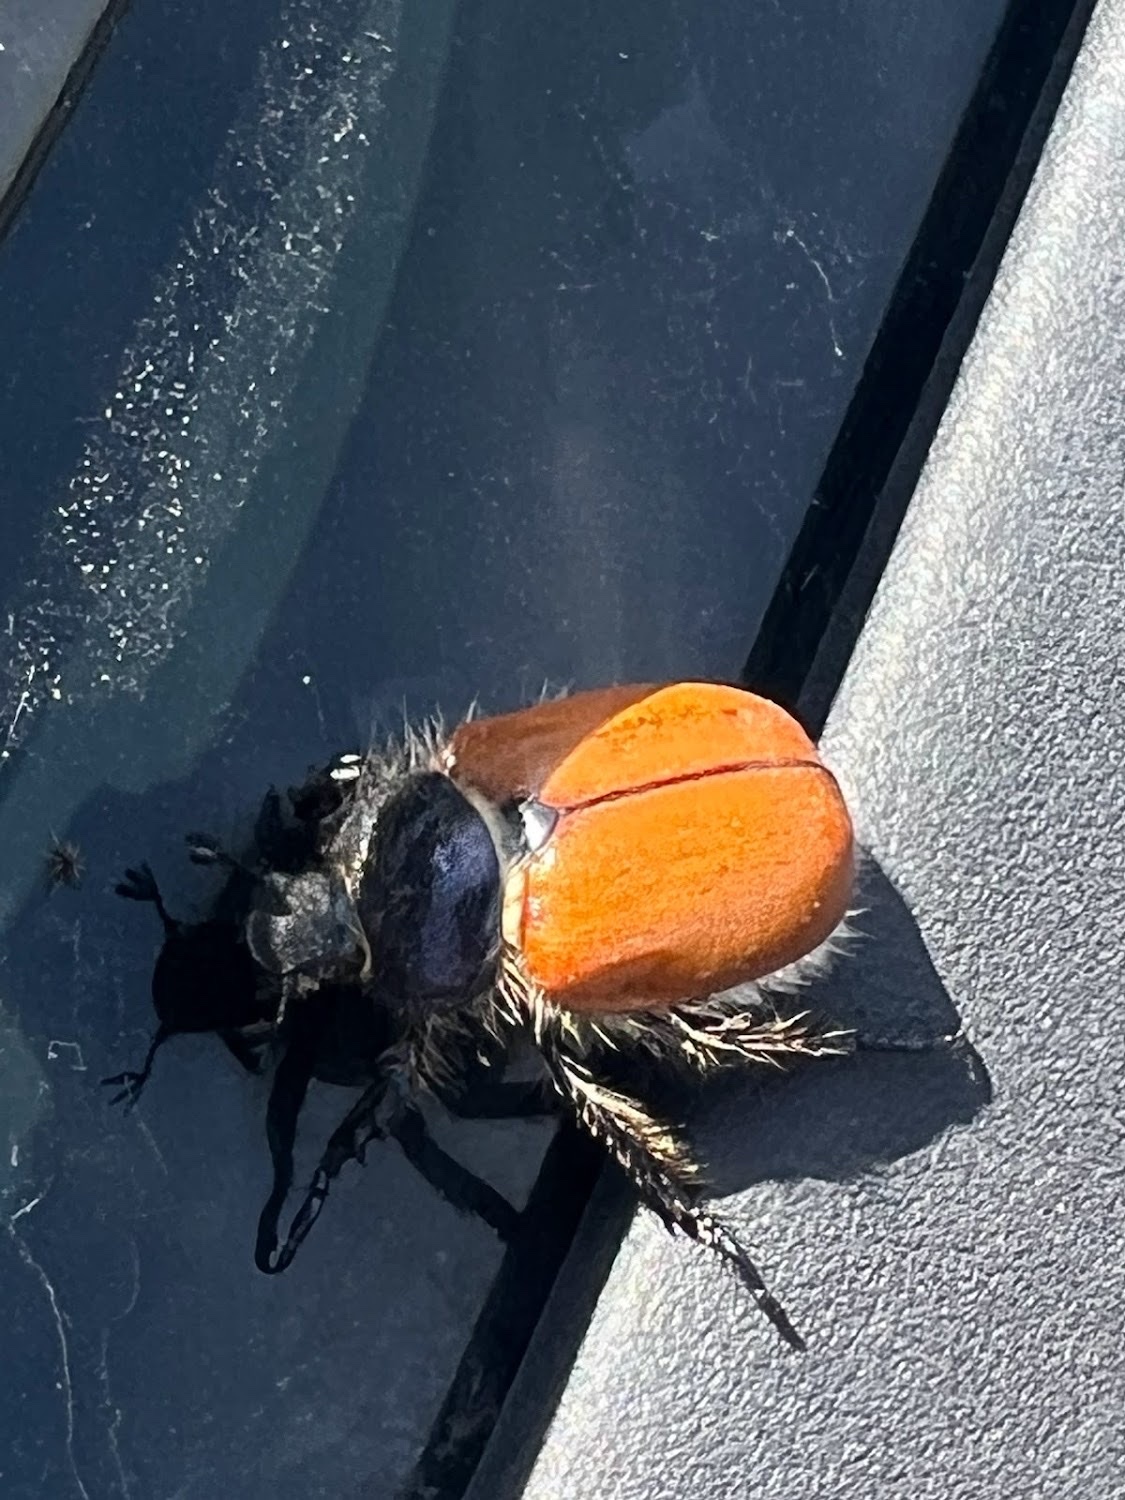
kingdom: Animalia
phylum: Arthropoda
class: Insecta
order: Coleoptera
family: Scarabaeidae
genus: Paracotalpa
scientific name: Paracotalpa ursina
